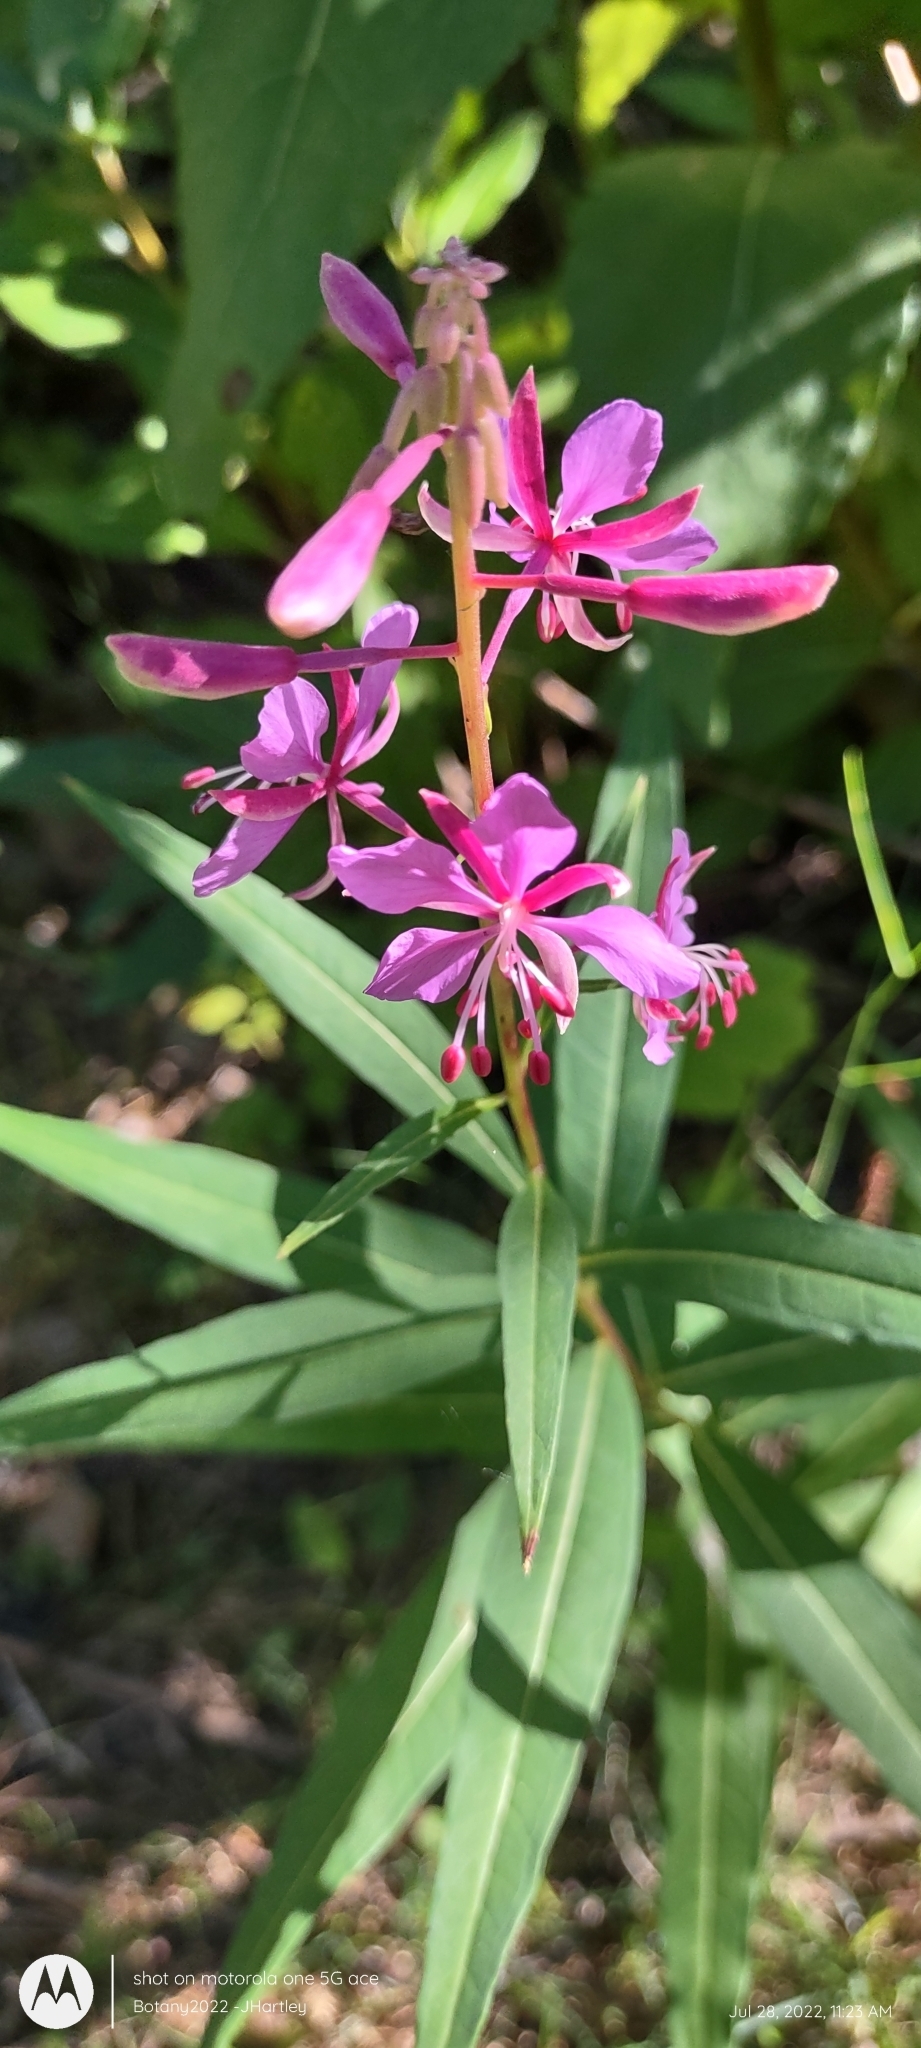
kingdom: Plantae
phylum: Tracheophyta
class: Magnoliopsida
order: Myrtales
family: Onagraceae
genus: Chamaenerion
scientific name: Chamaenerion angustifolium
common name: Fireweed
